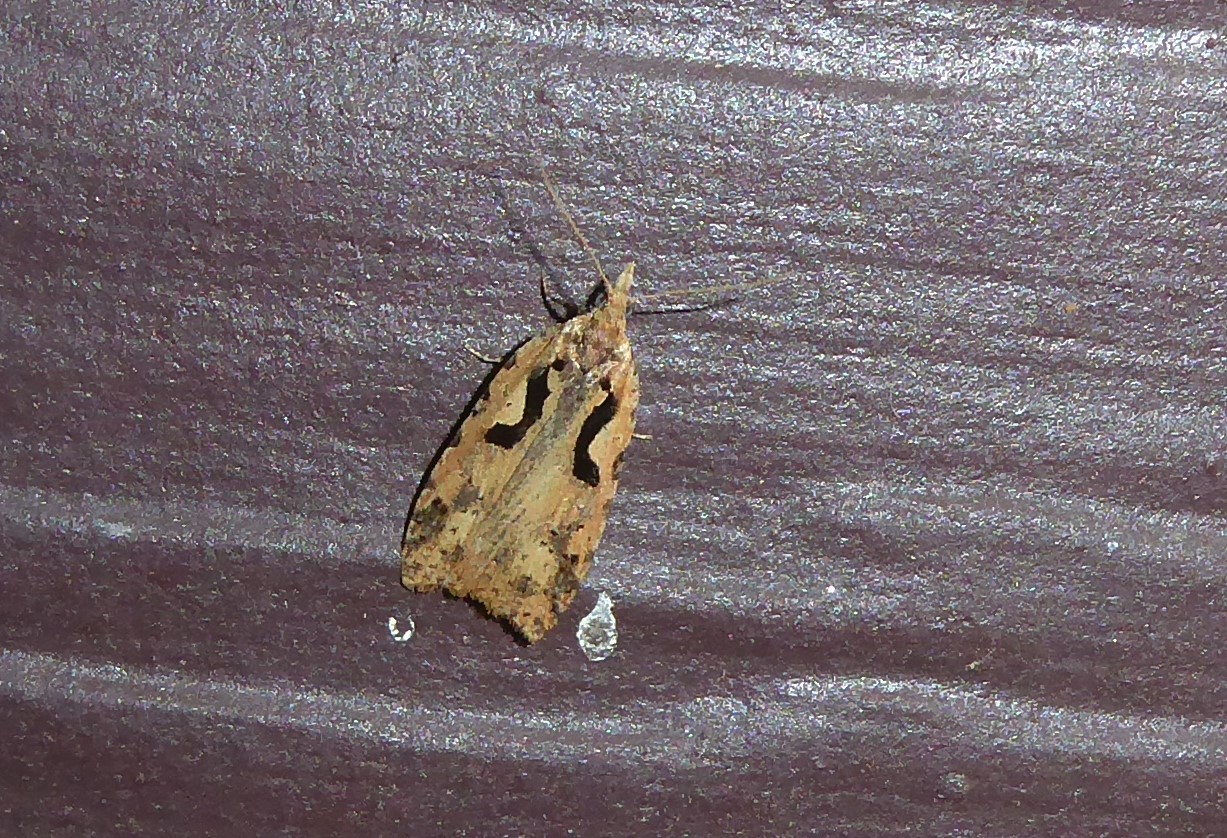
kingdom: Animalia
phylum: Arthropoda
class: Insecta
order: Lepidoptera
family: Tortricidae
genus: Cnephasia
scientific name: Cnephasia jactatana
